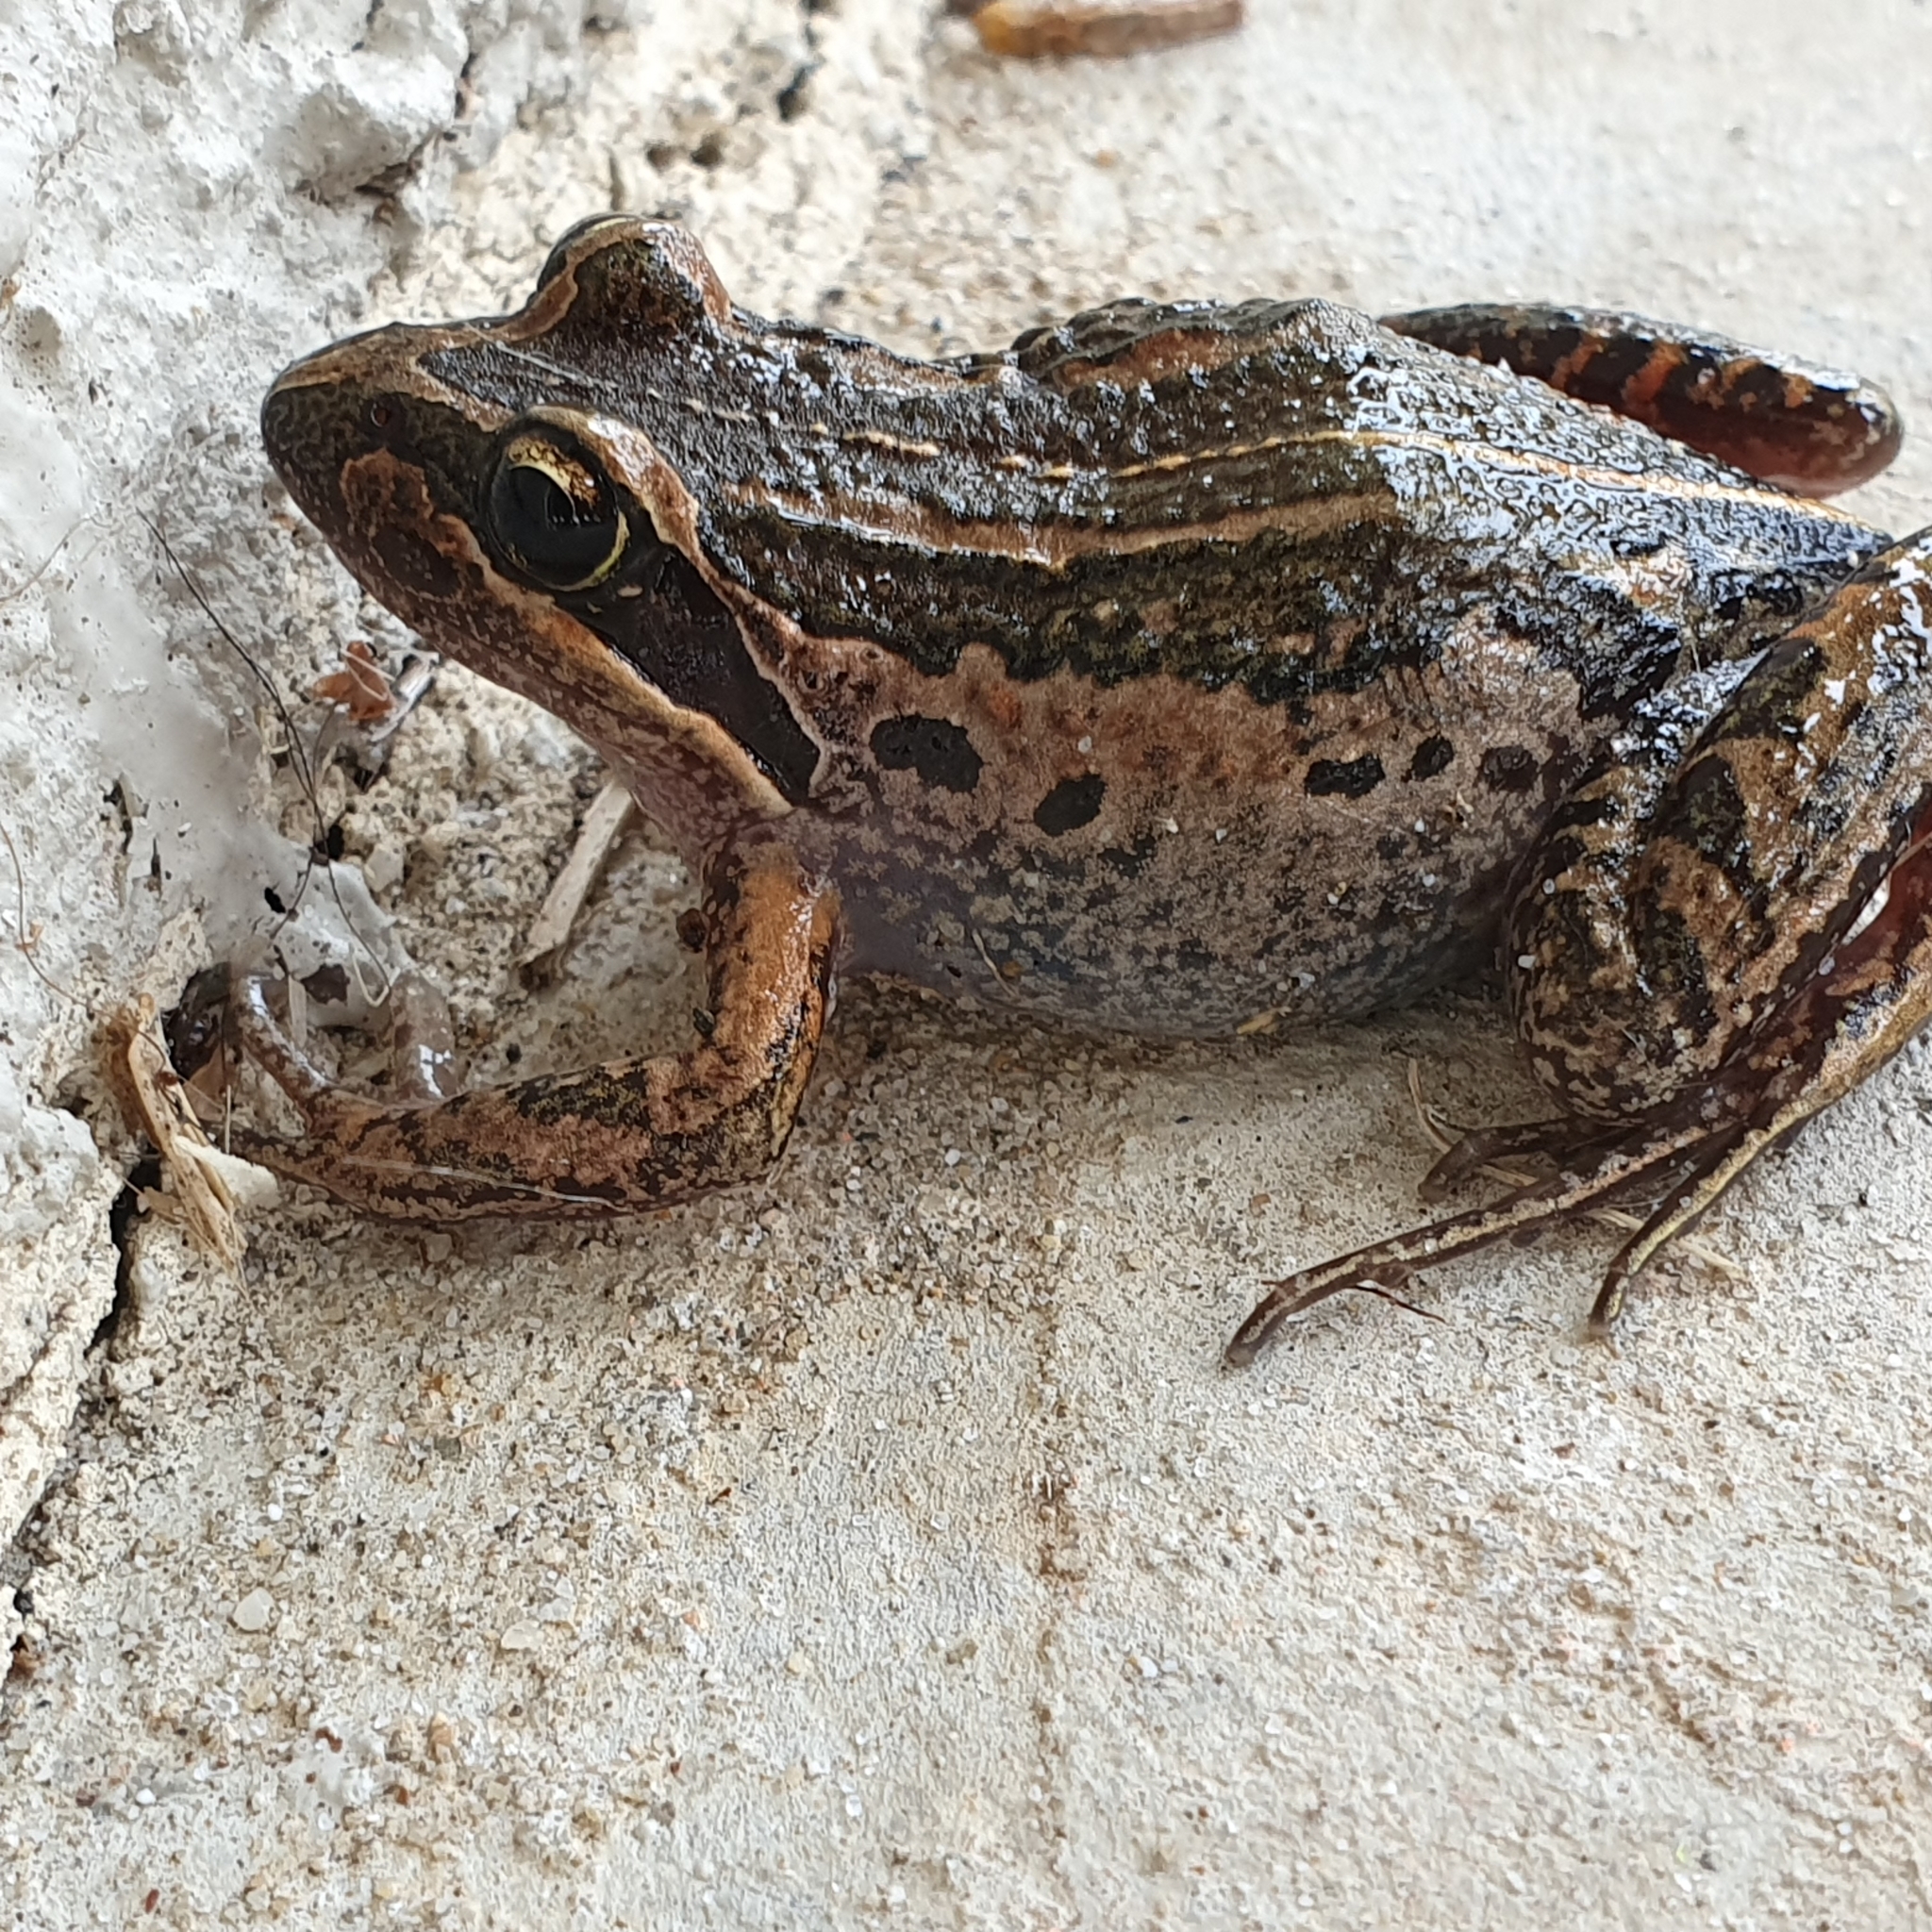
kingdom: Animalia
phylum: Chordata
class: Amphibia
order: Anura
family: Limnodynastidae
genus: Limnodynastes
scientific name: Limnodynastes peronii
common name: Brown frog
